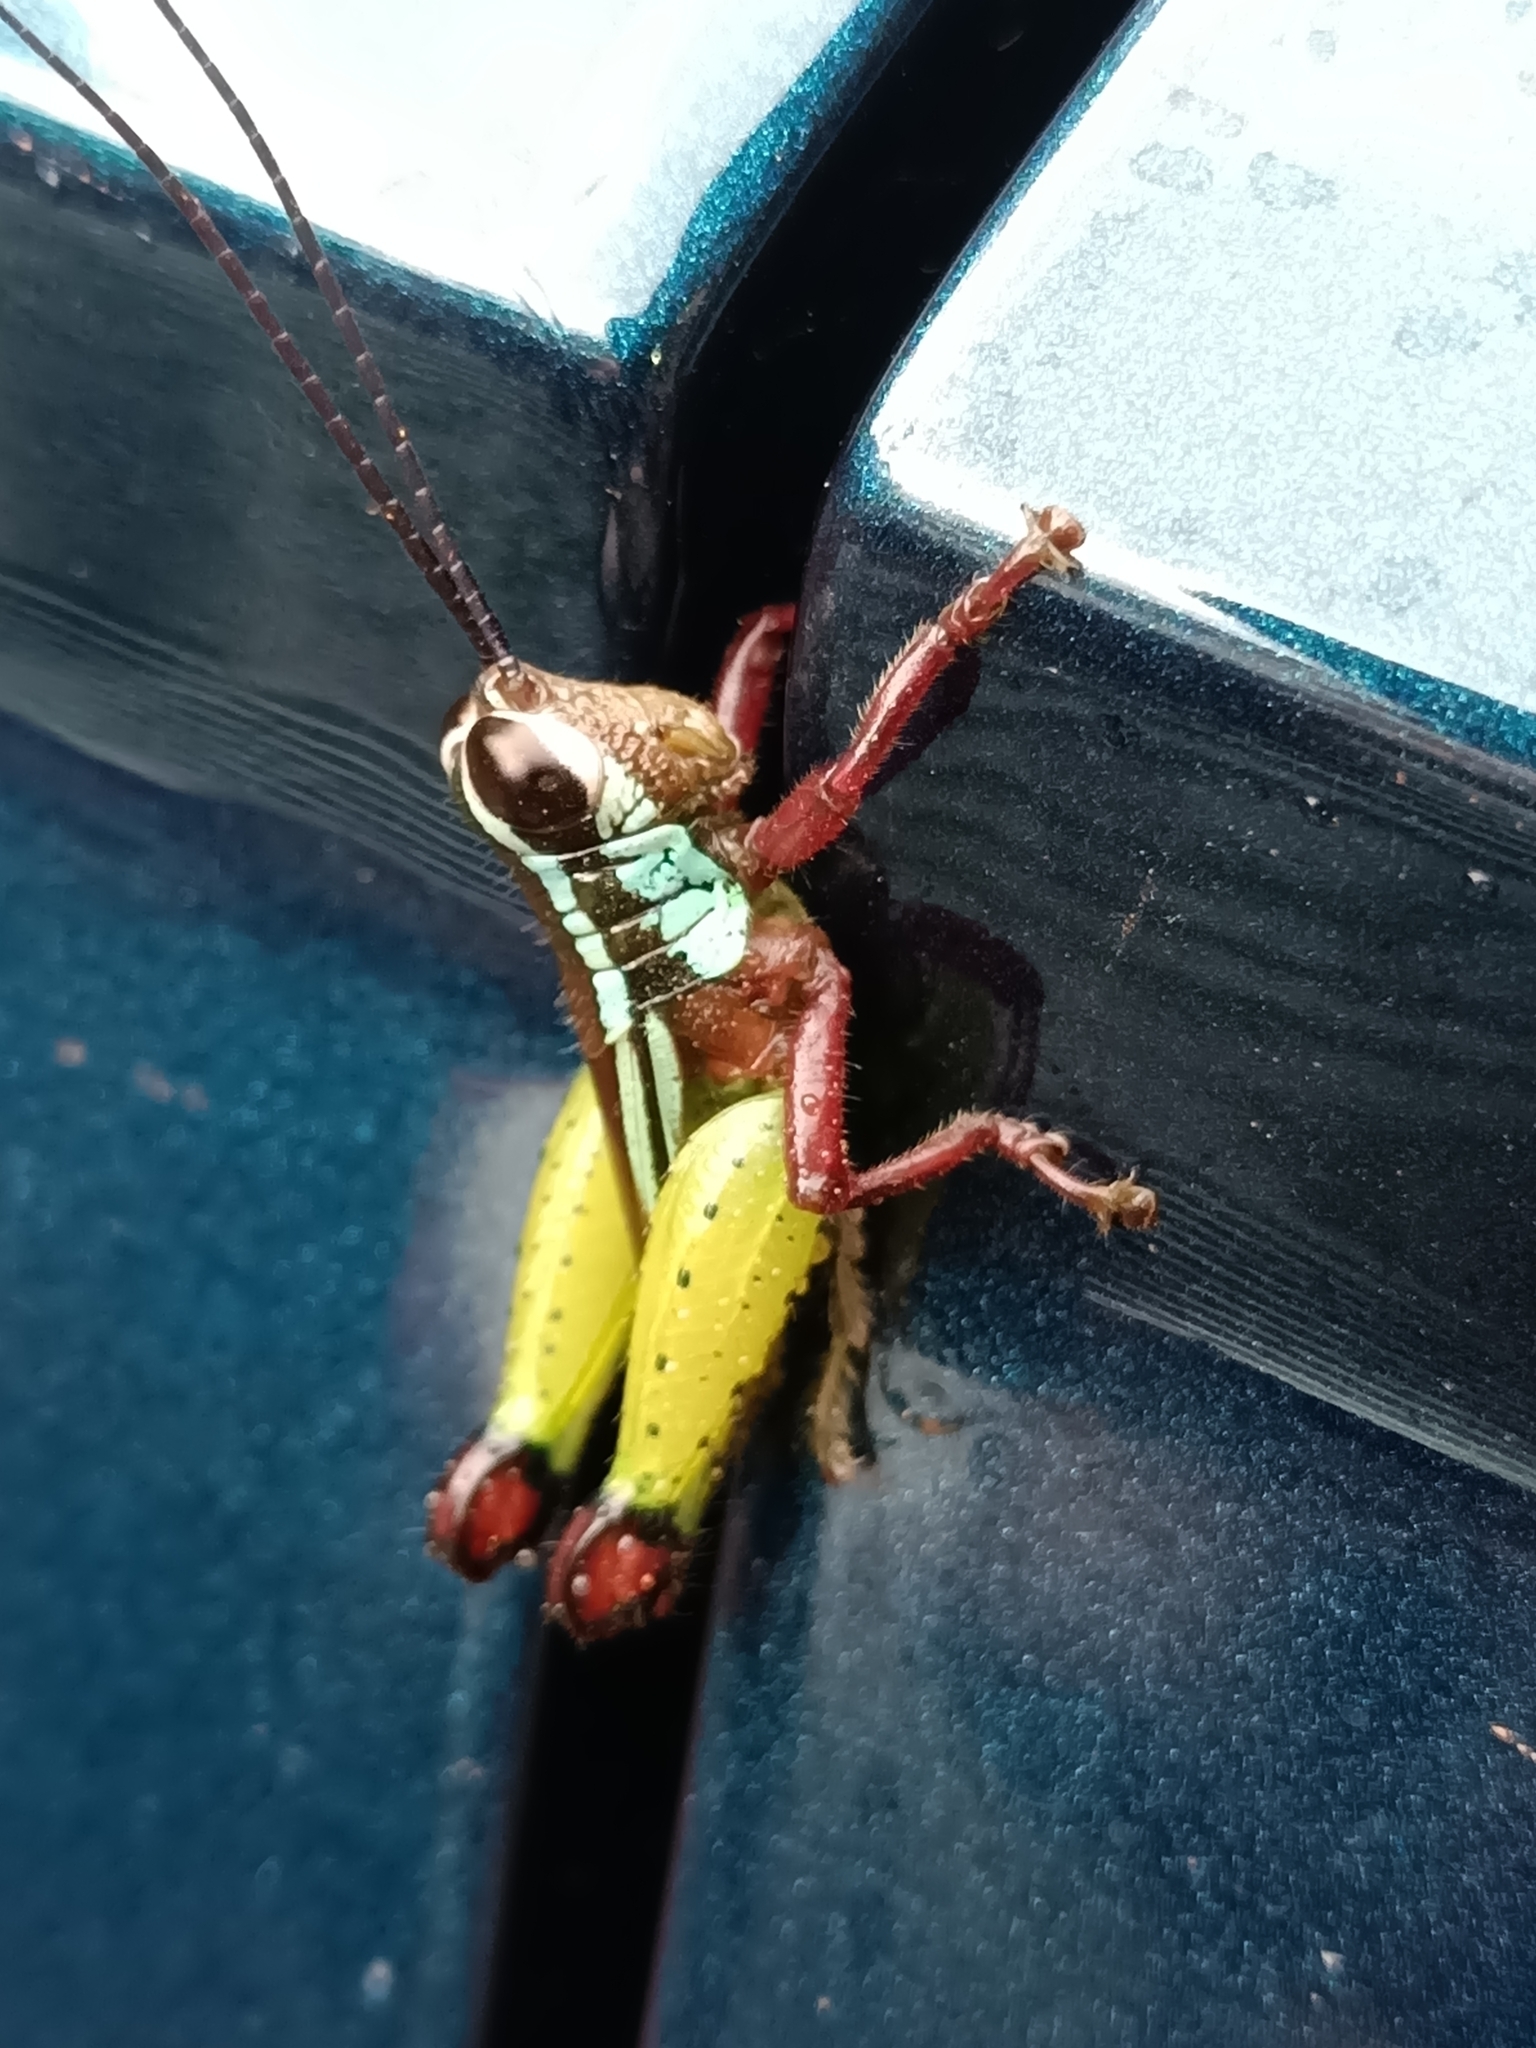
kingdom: Animalia
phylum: Arthropoda
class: Insecta
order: Orthoptera
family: Romaleidae
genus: Othnacris
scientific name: Othnacris surdaster
